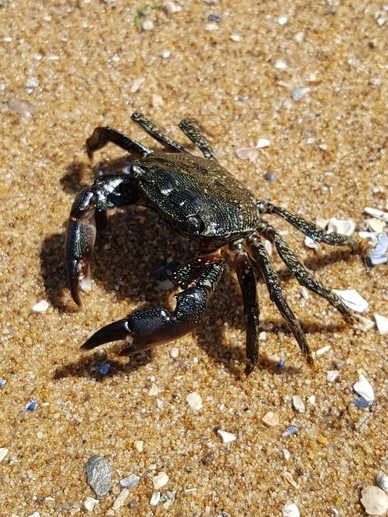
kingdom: Animalia
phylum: Arthropoda
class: Malacostraca
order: Decapoda
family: Grapsidae
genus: Pachygrapsus
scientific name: Pachygrapsus marmoratus
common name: Marbled rock crab
